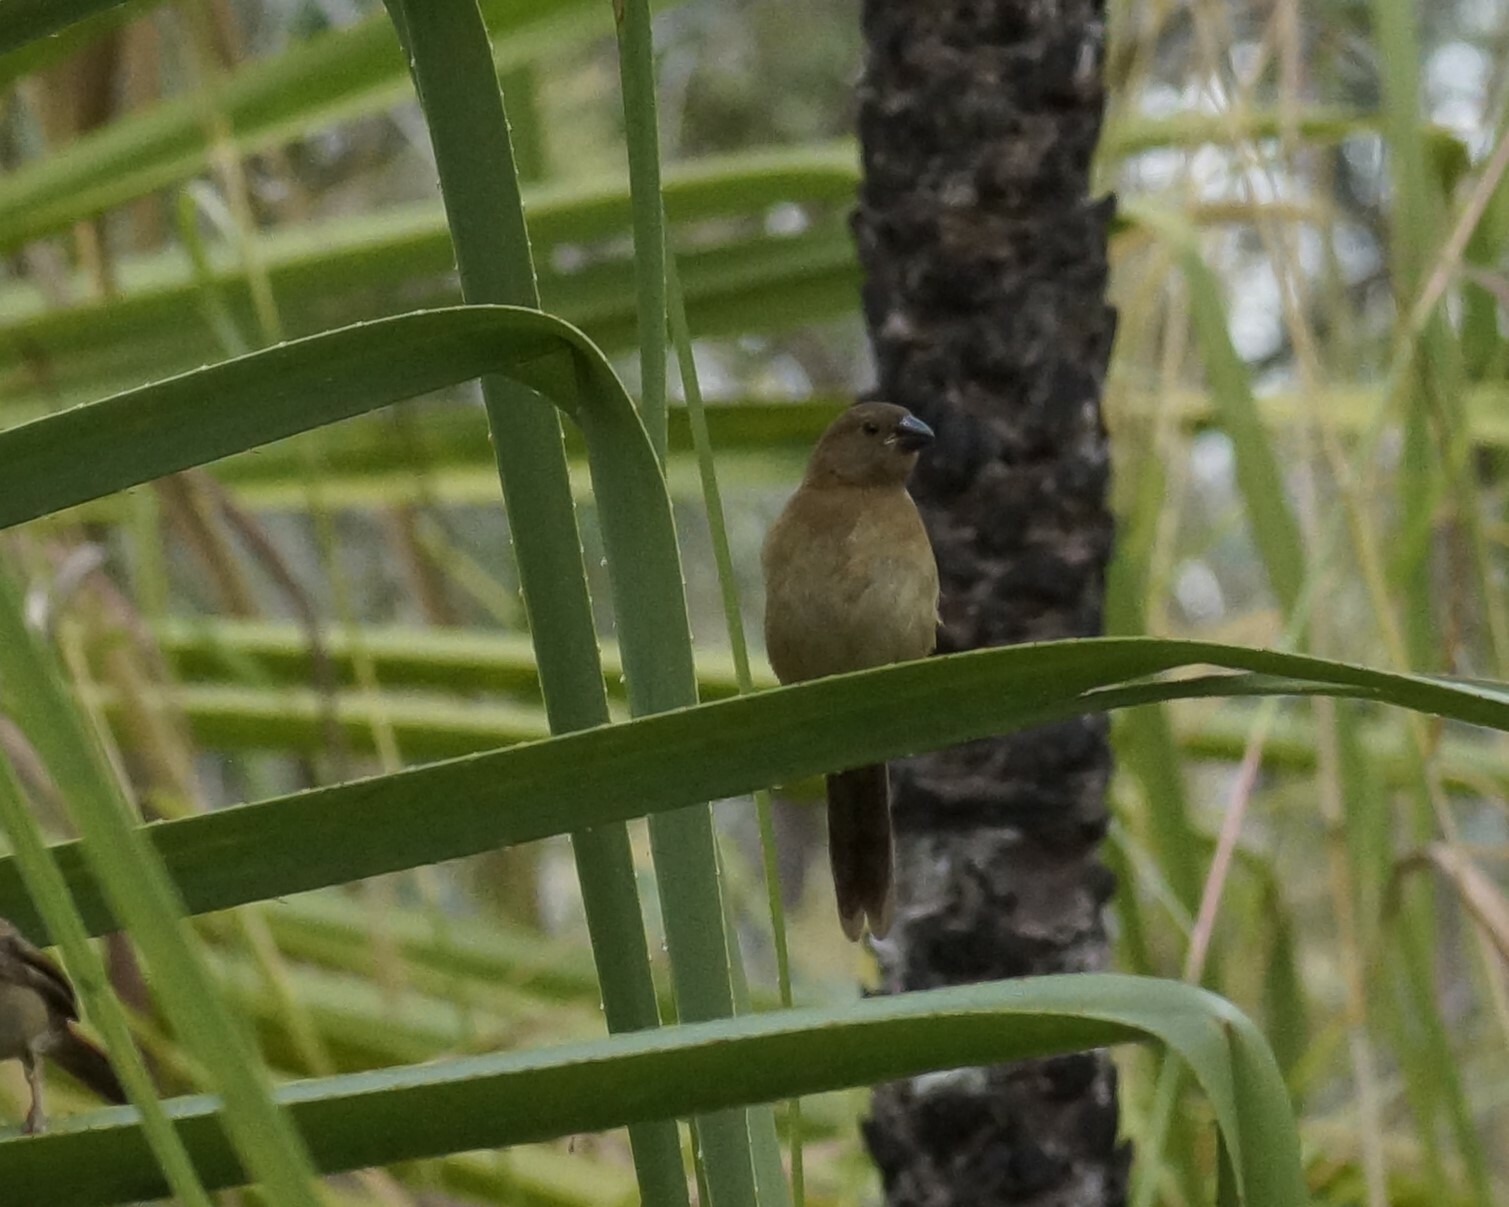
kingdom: Animalia
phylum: Chordata
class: Aves
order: Passeriformes
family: Estrildidae
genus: Neochmia
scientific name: Neochmia phaeton
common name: Crimson finch
